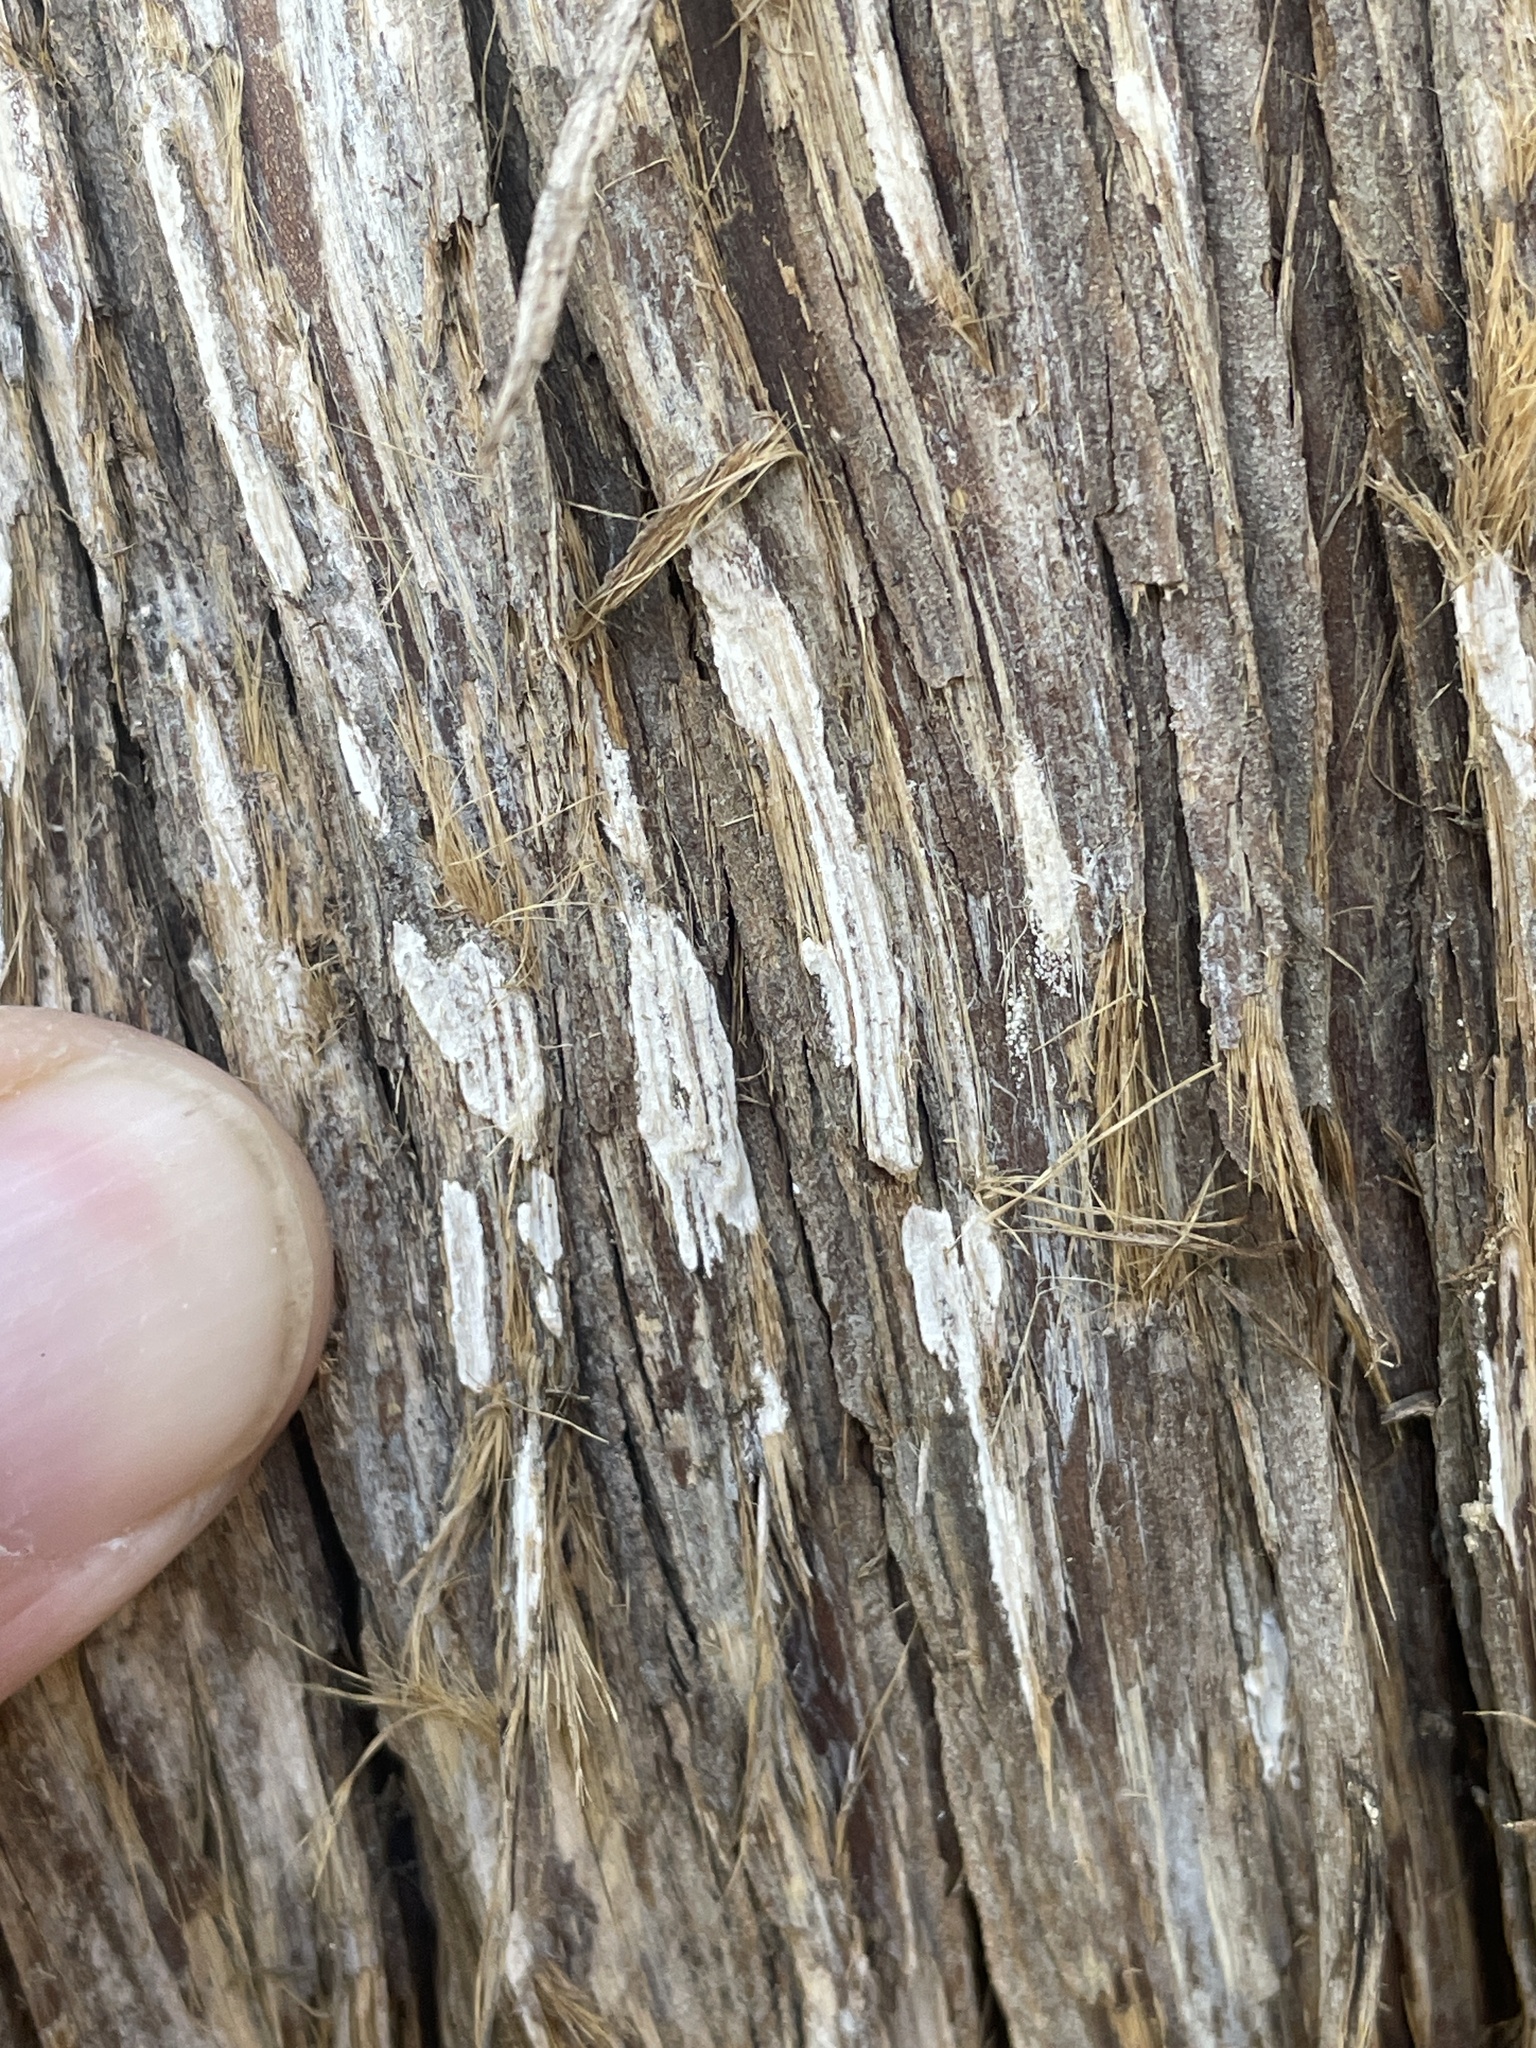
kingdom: Fungi
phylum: Basidiomycota
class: Agaricomycetes
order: Agaricales
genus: Dendrothele
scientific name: Dendrothele nivosa
